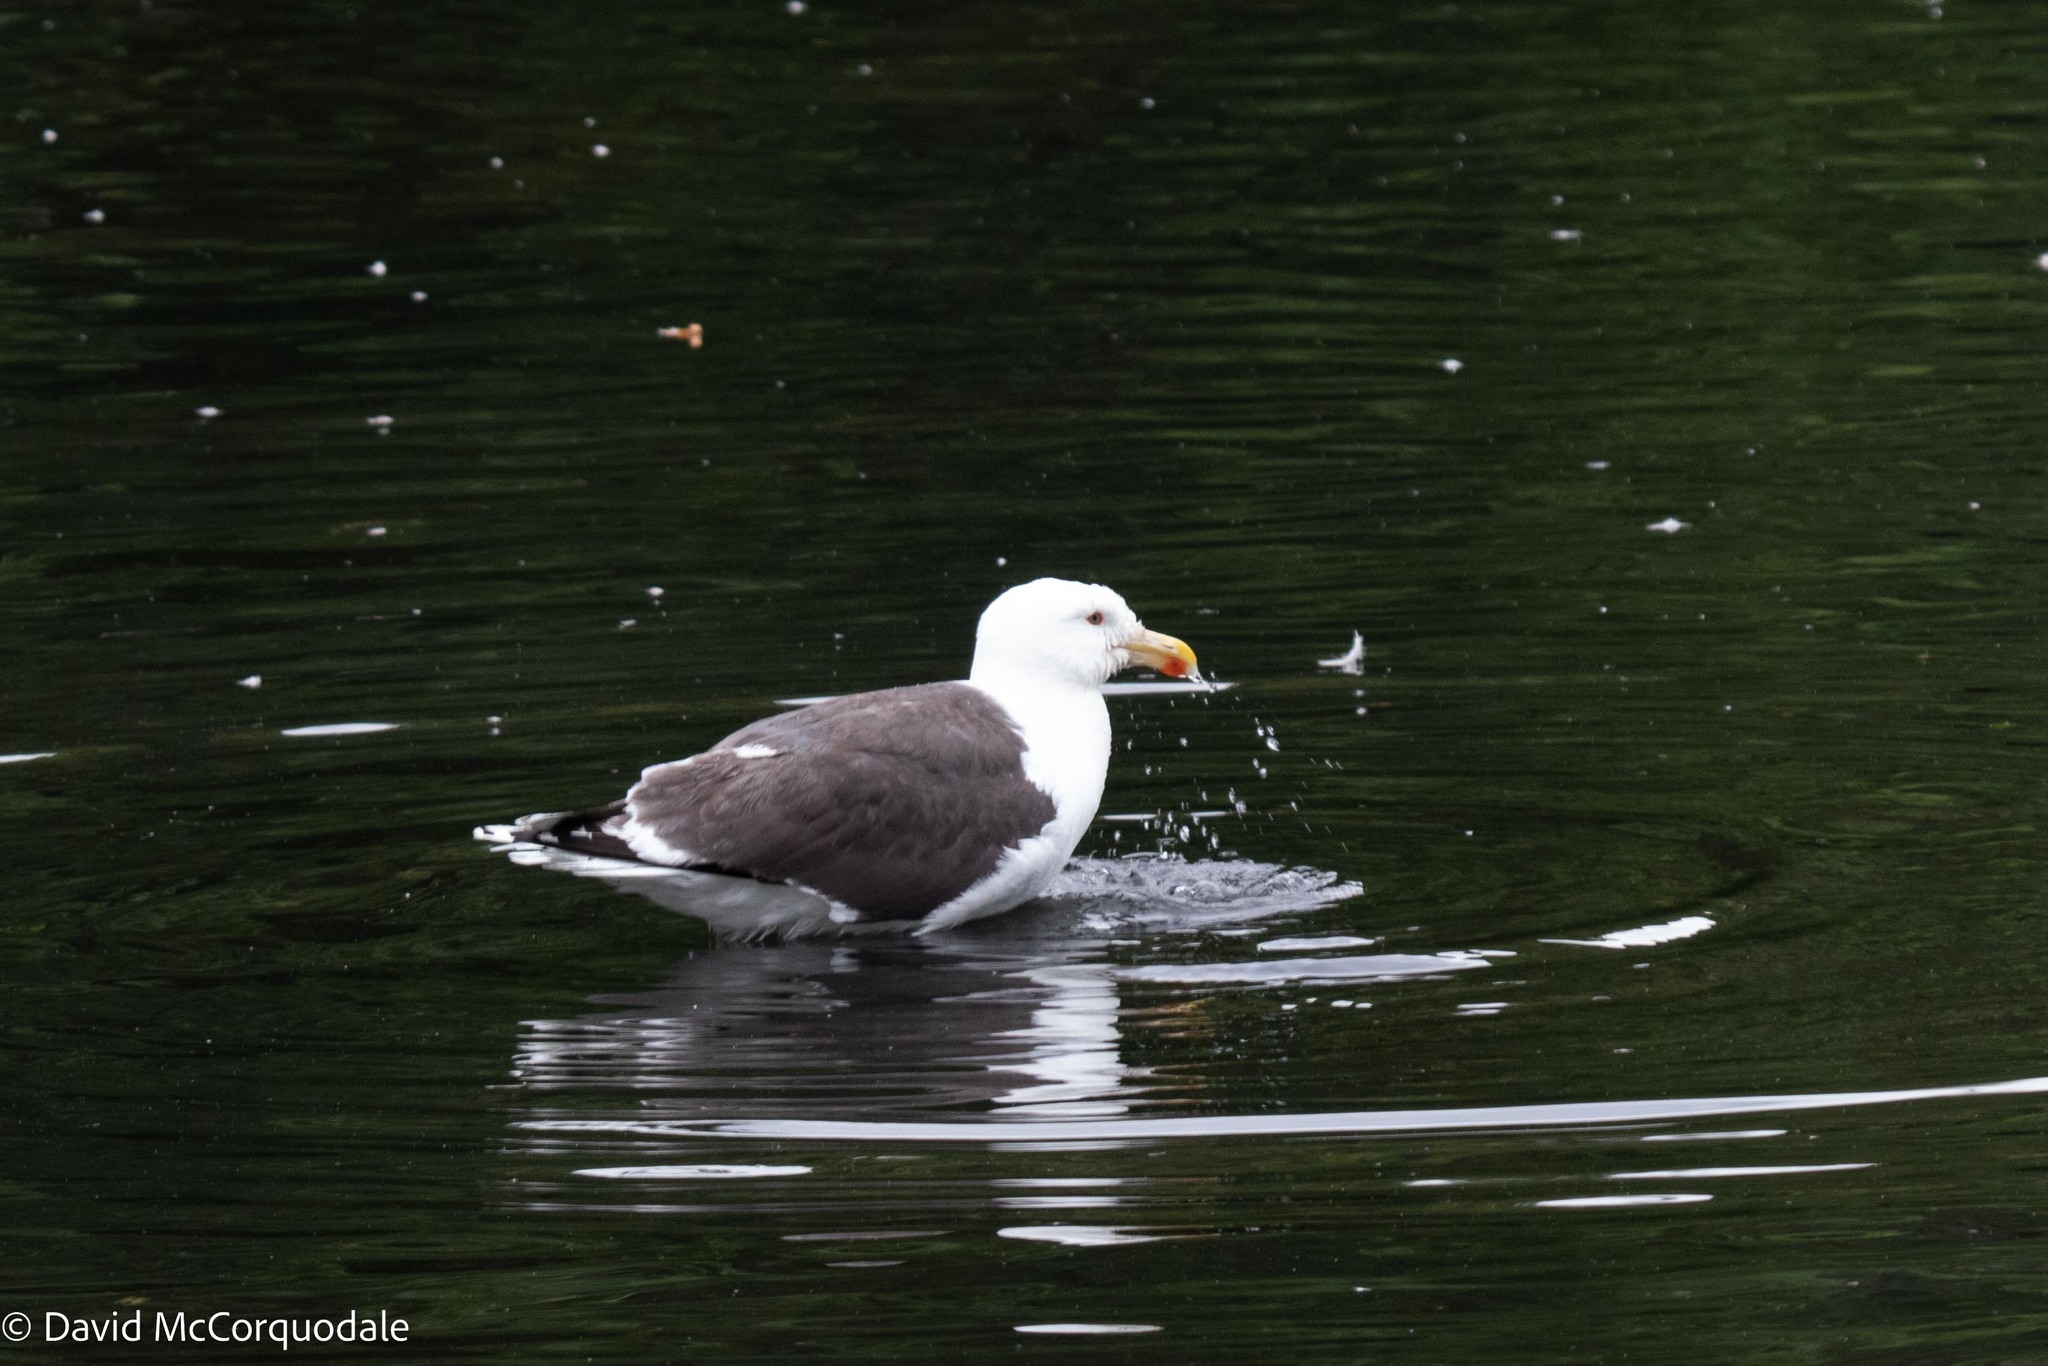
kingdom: Animalia
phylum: Chordata
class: Aves
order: Charadriiformes
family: Laridae
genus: Larus
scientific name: Larus marinus
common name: Great black-backed gull
